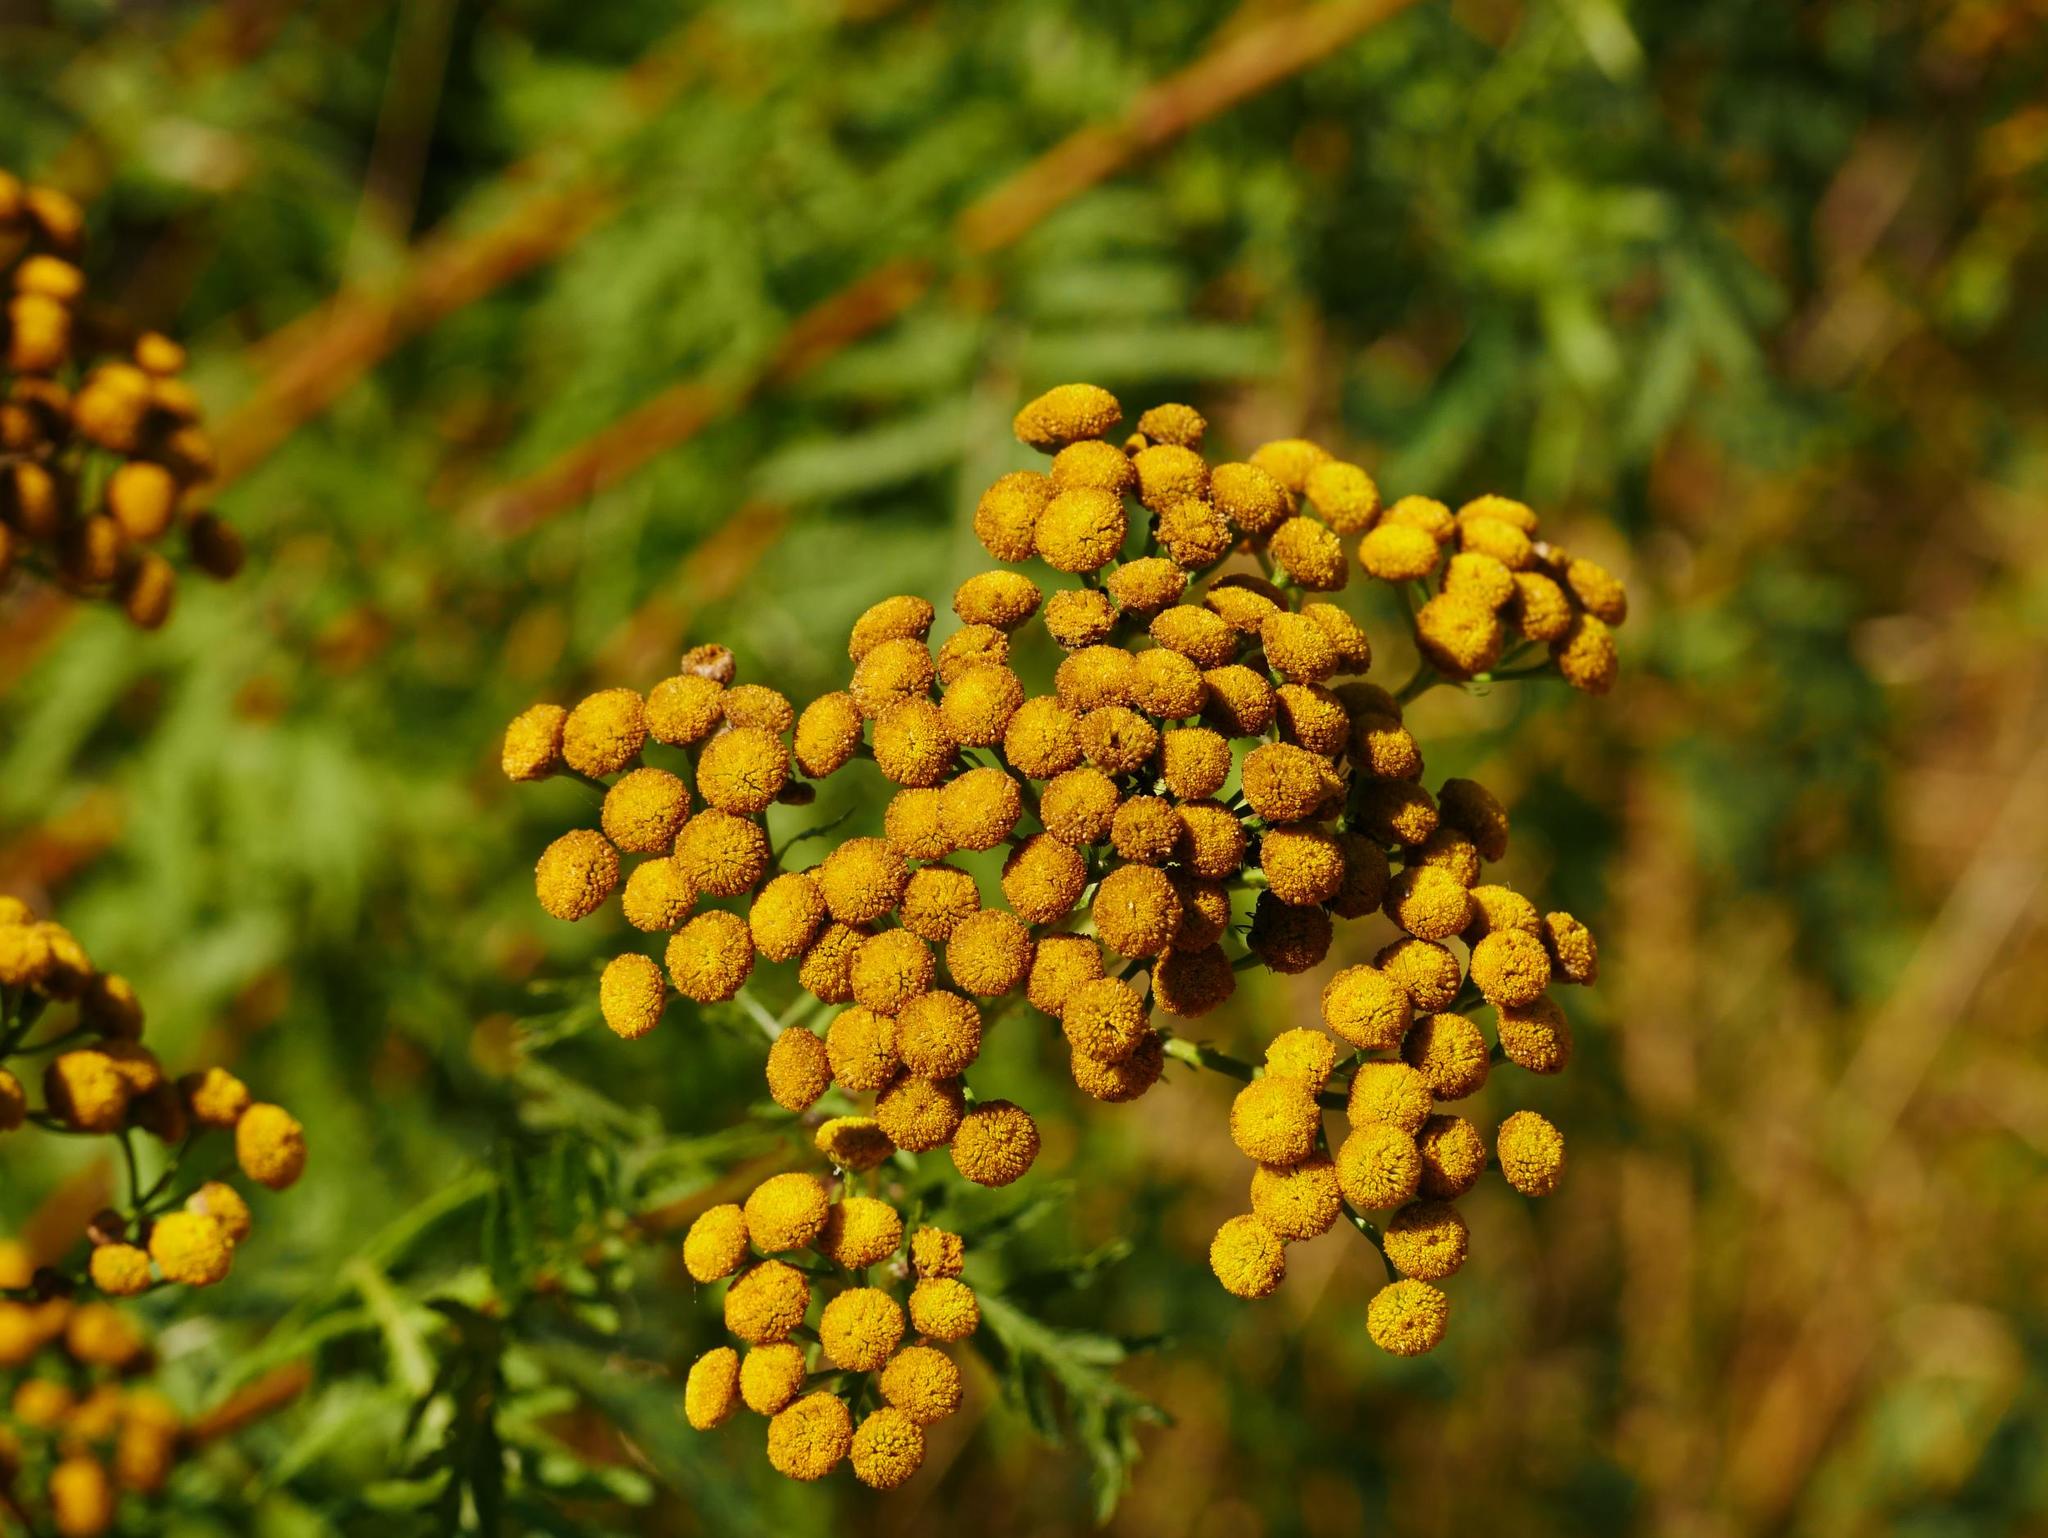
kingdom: Plantae
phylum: Tracheophyta
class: Magnoliopsida
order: Asterales
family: Asteraceae
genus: Tanacetum
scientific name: Tanacetum vulgare
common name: Common tansy
